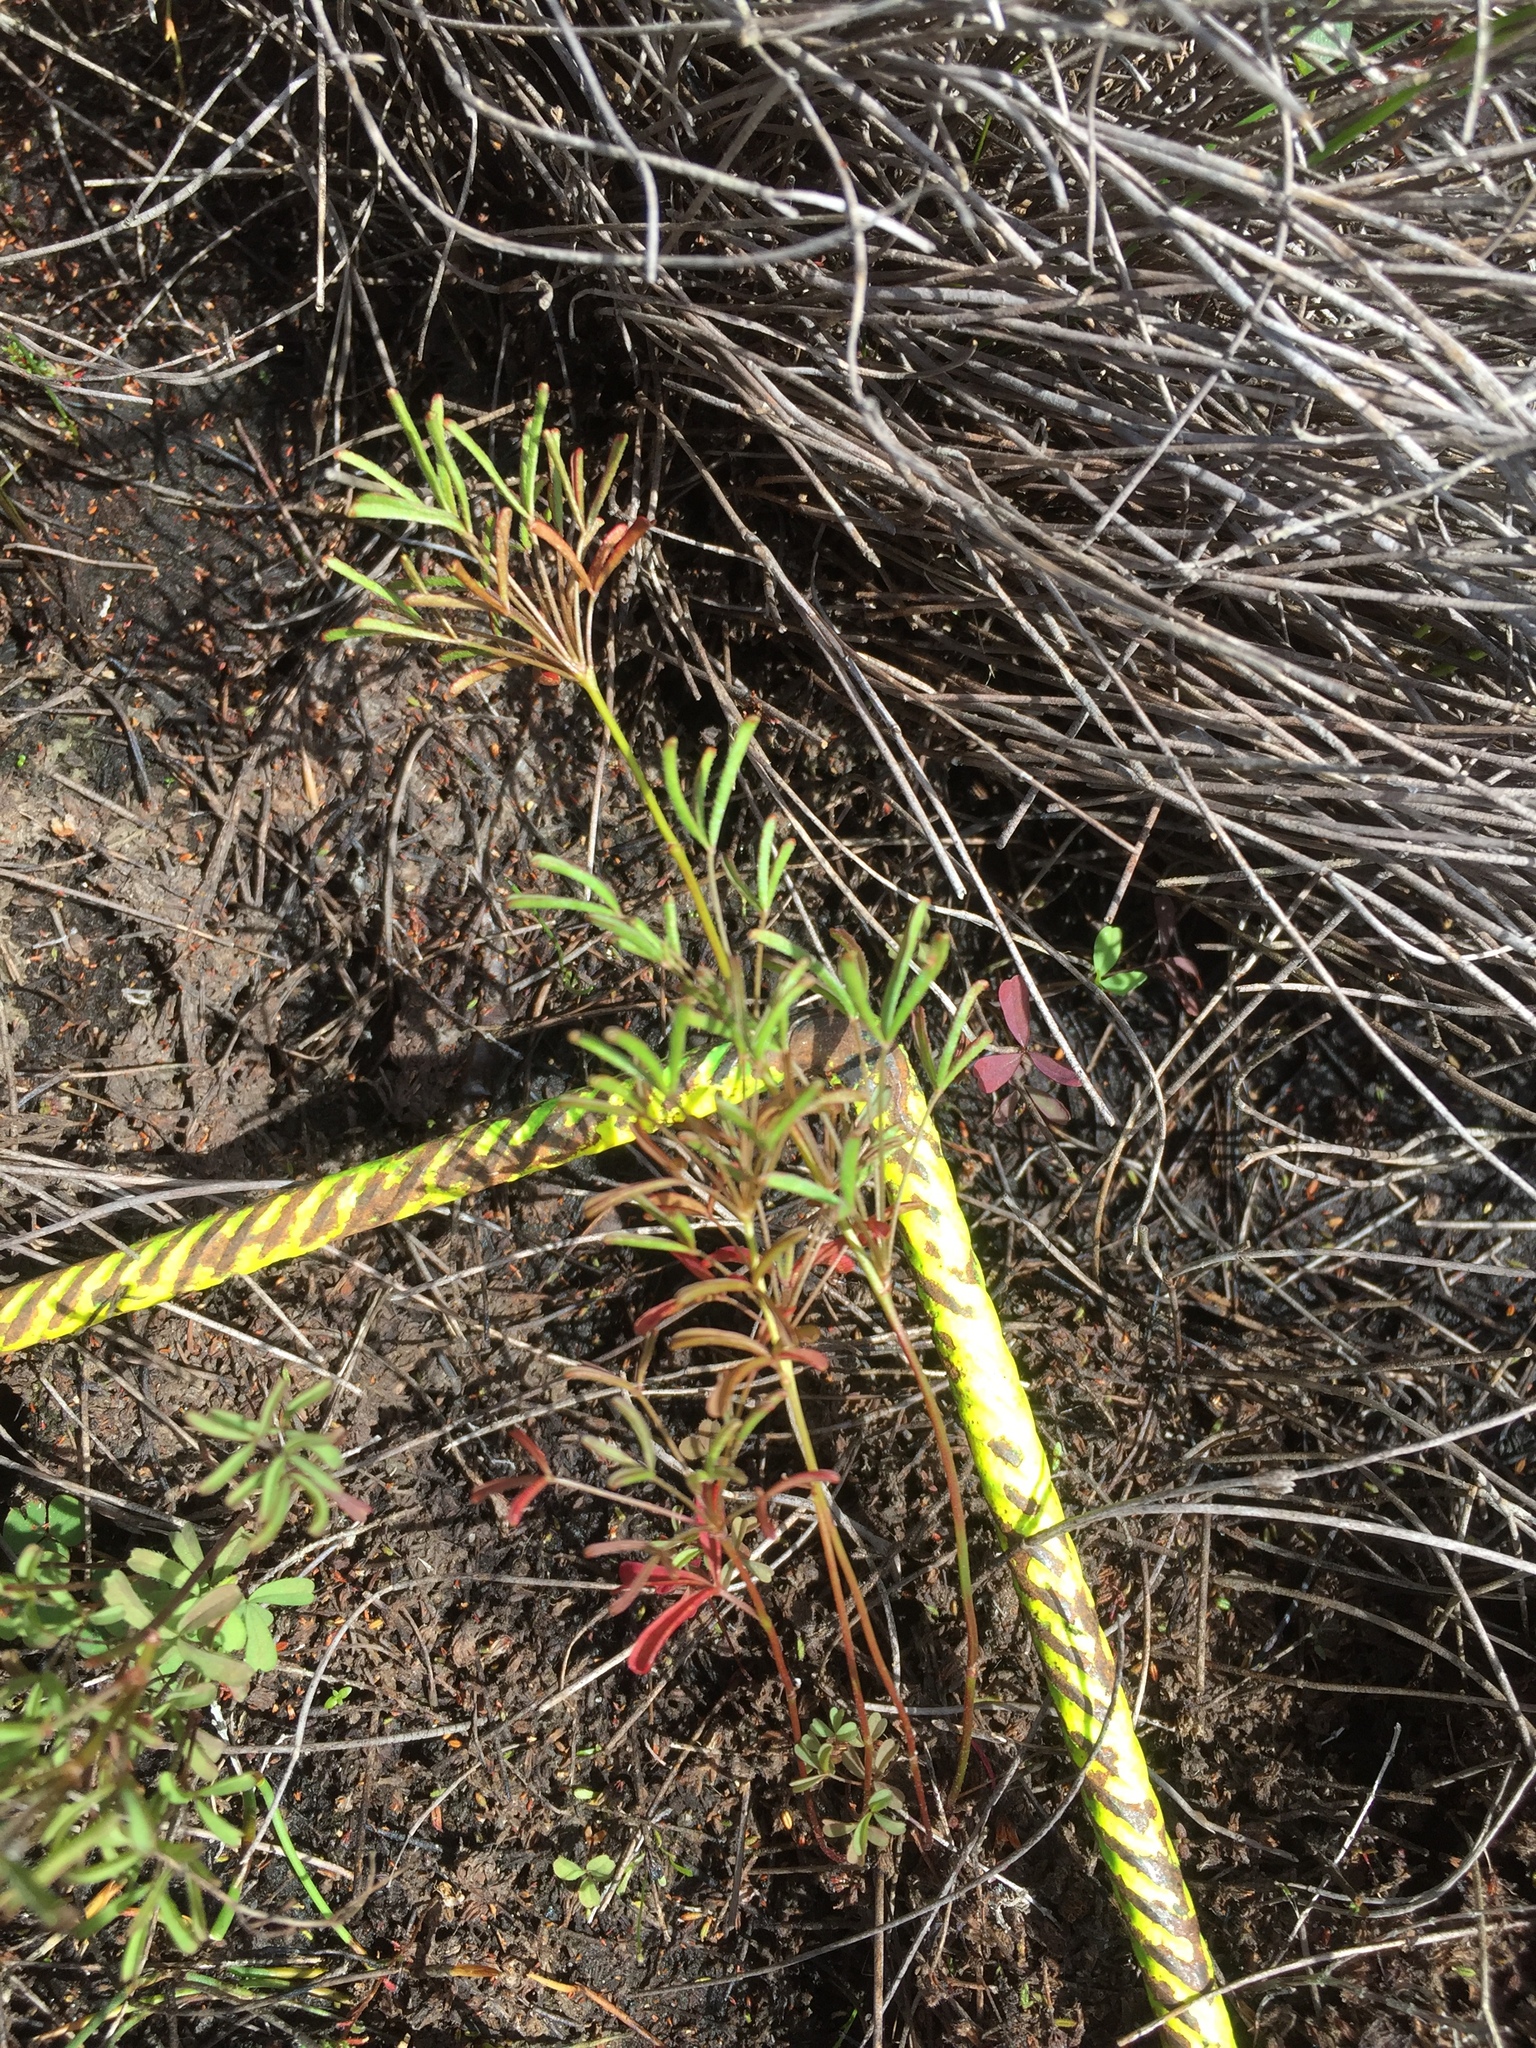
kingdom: Plantae
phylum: Tracheophyta
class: Magnoliopsida
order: Oxalidales
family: Oxalidaceae
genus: Oxalis
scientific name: Oxalis versicolor
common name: Peppermint rock oxalis
